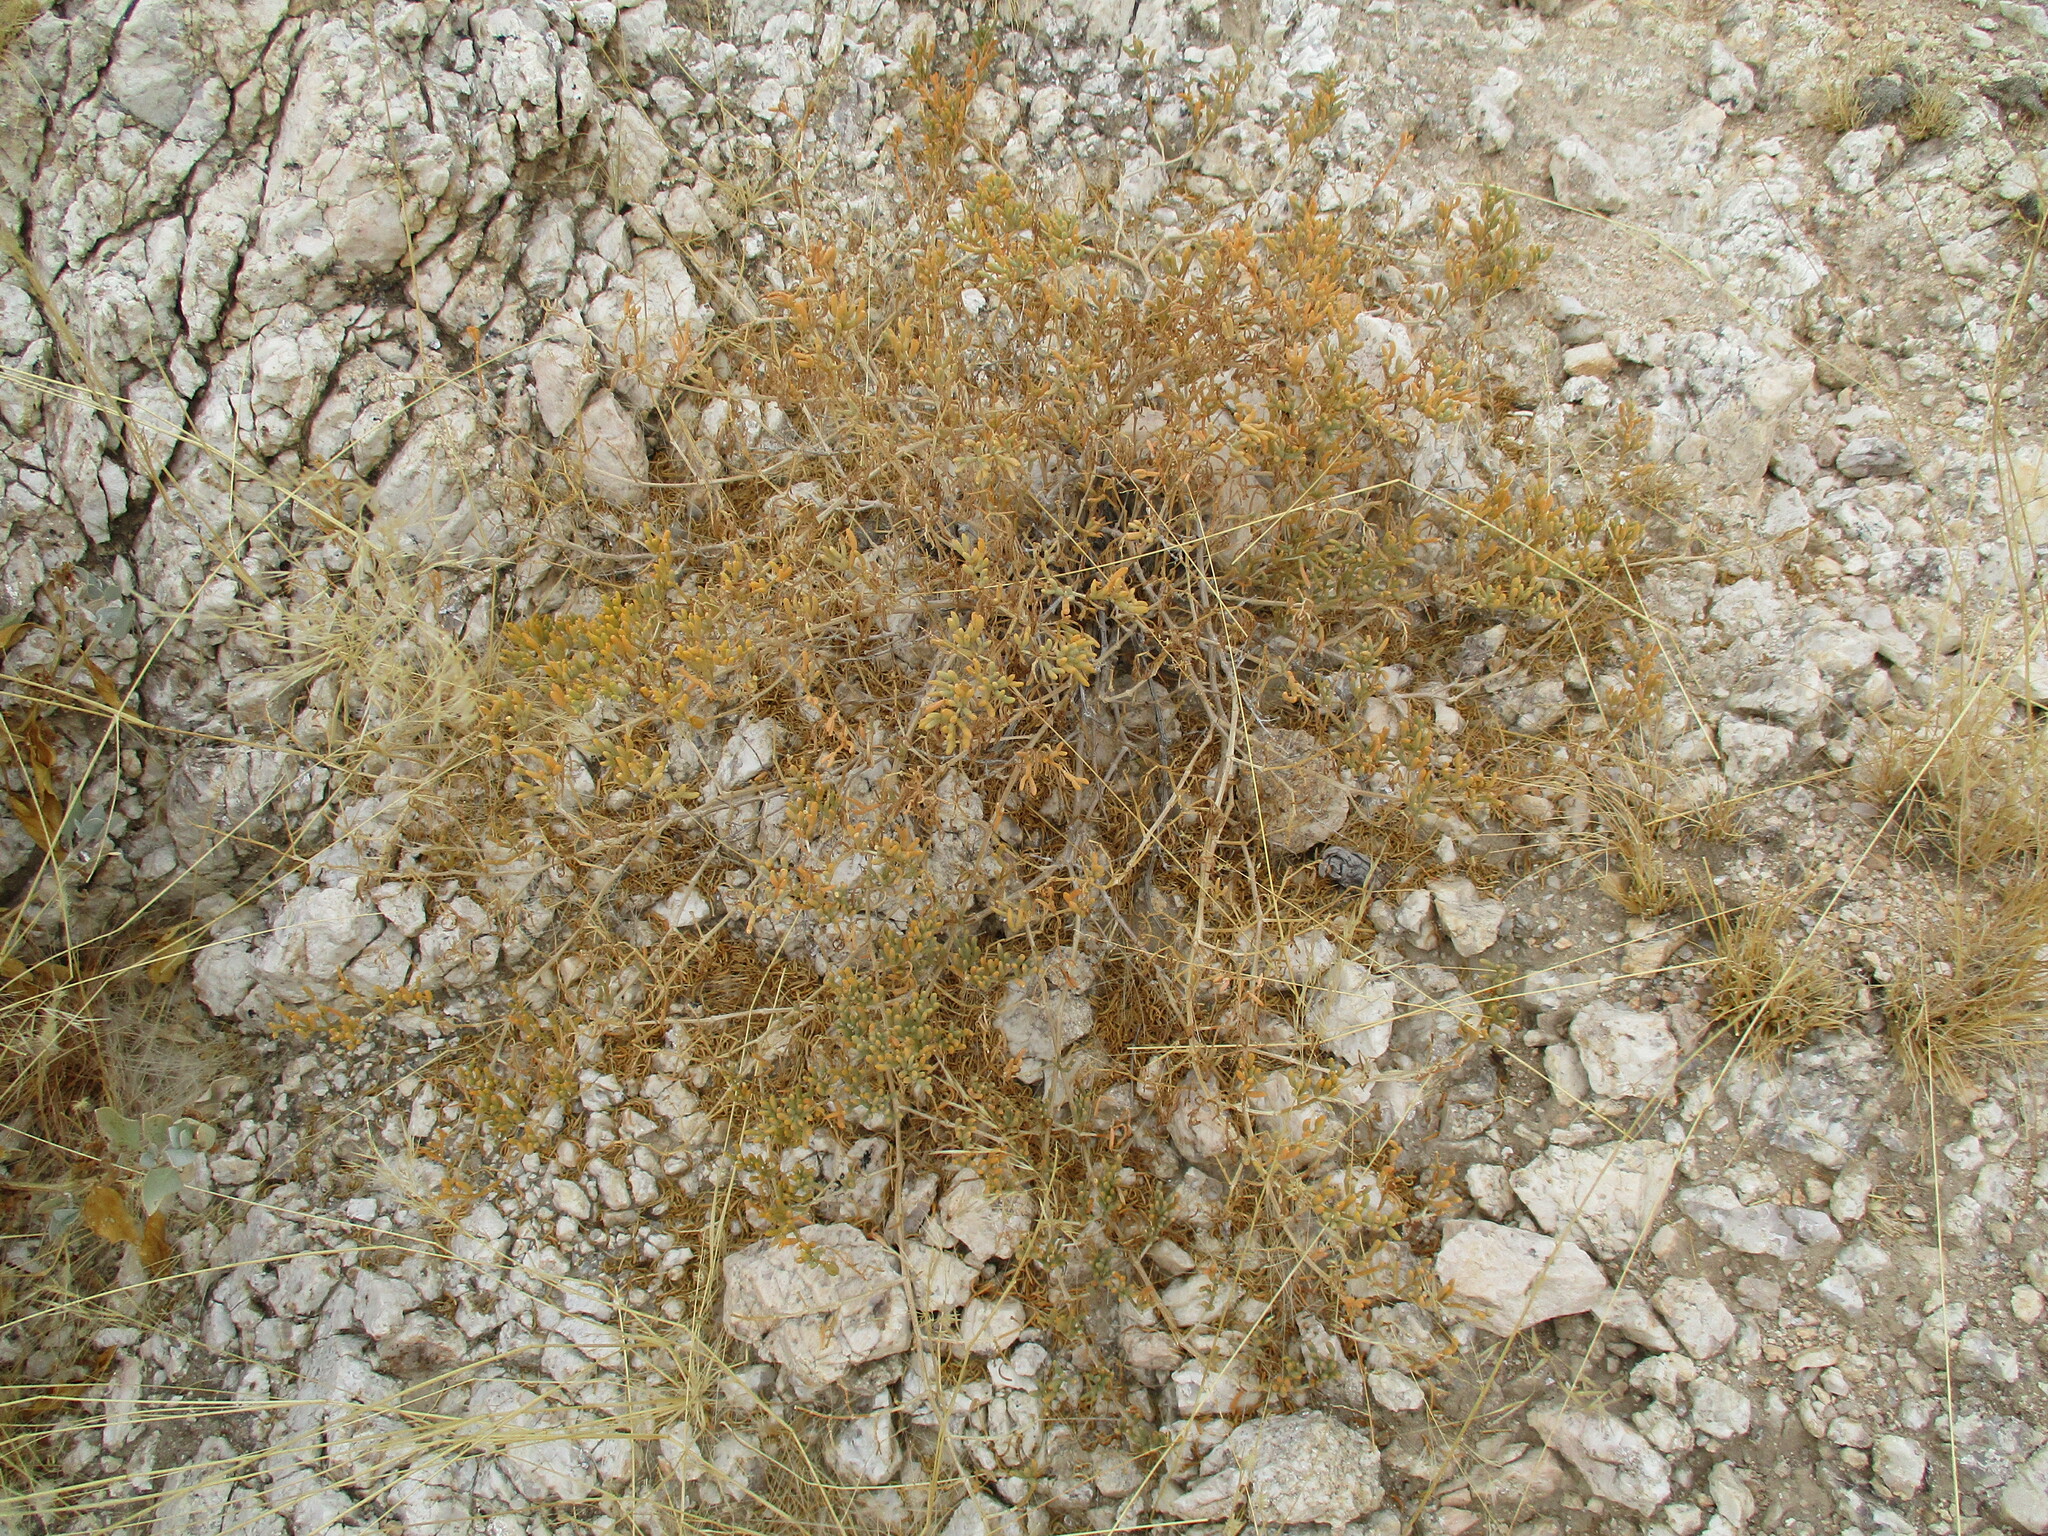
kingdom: Plantae
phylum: Tracheophyta
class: Magnoliopsida
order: Zygophyllales
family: Zygophyllaceae
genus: Tetraena
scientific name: Tetraena cylindrifolia
